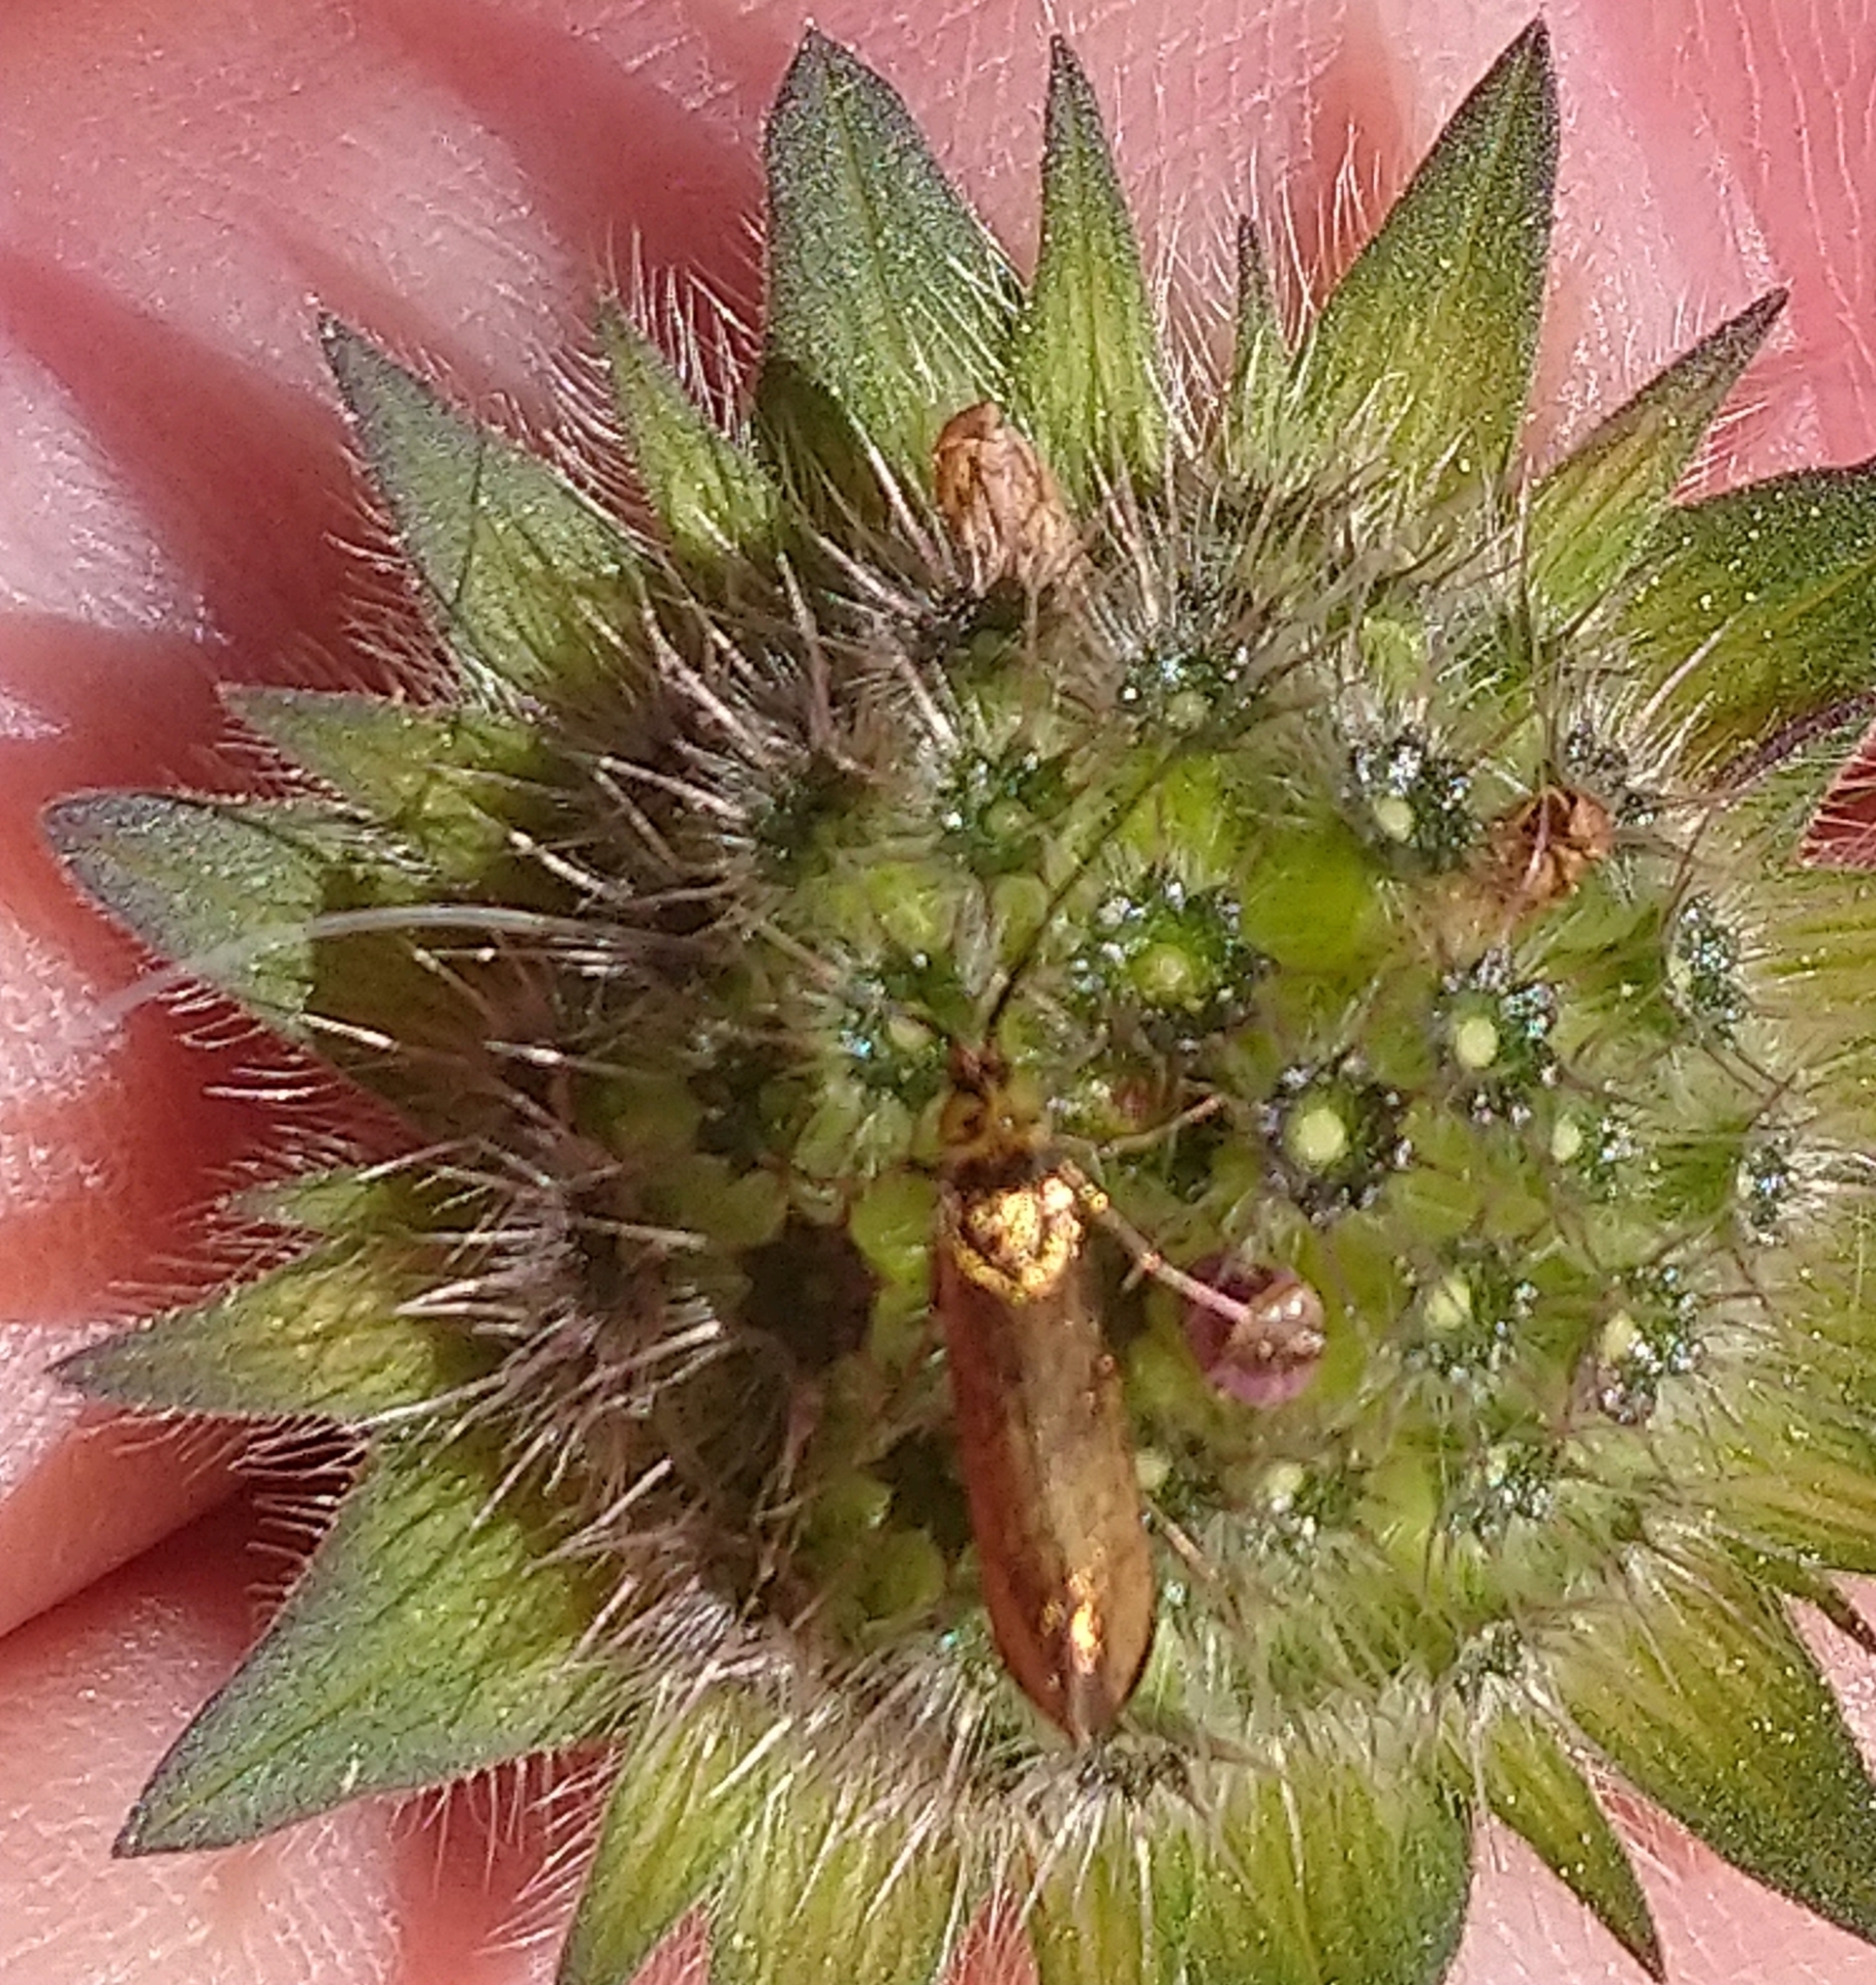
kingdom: Animalia
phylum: Arthropoda
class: Insecta
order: Lepidoptera
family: Adelidae
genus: Nemophora
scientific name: Nemophora metallica
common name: Brassy long-horn
